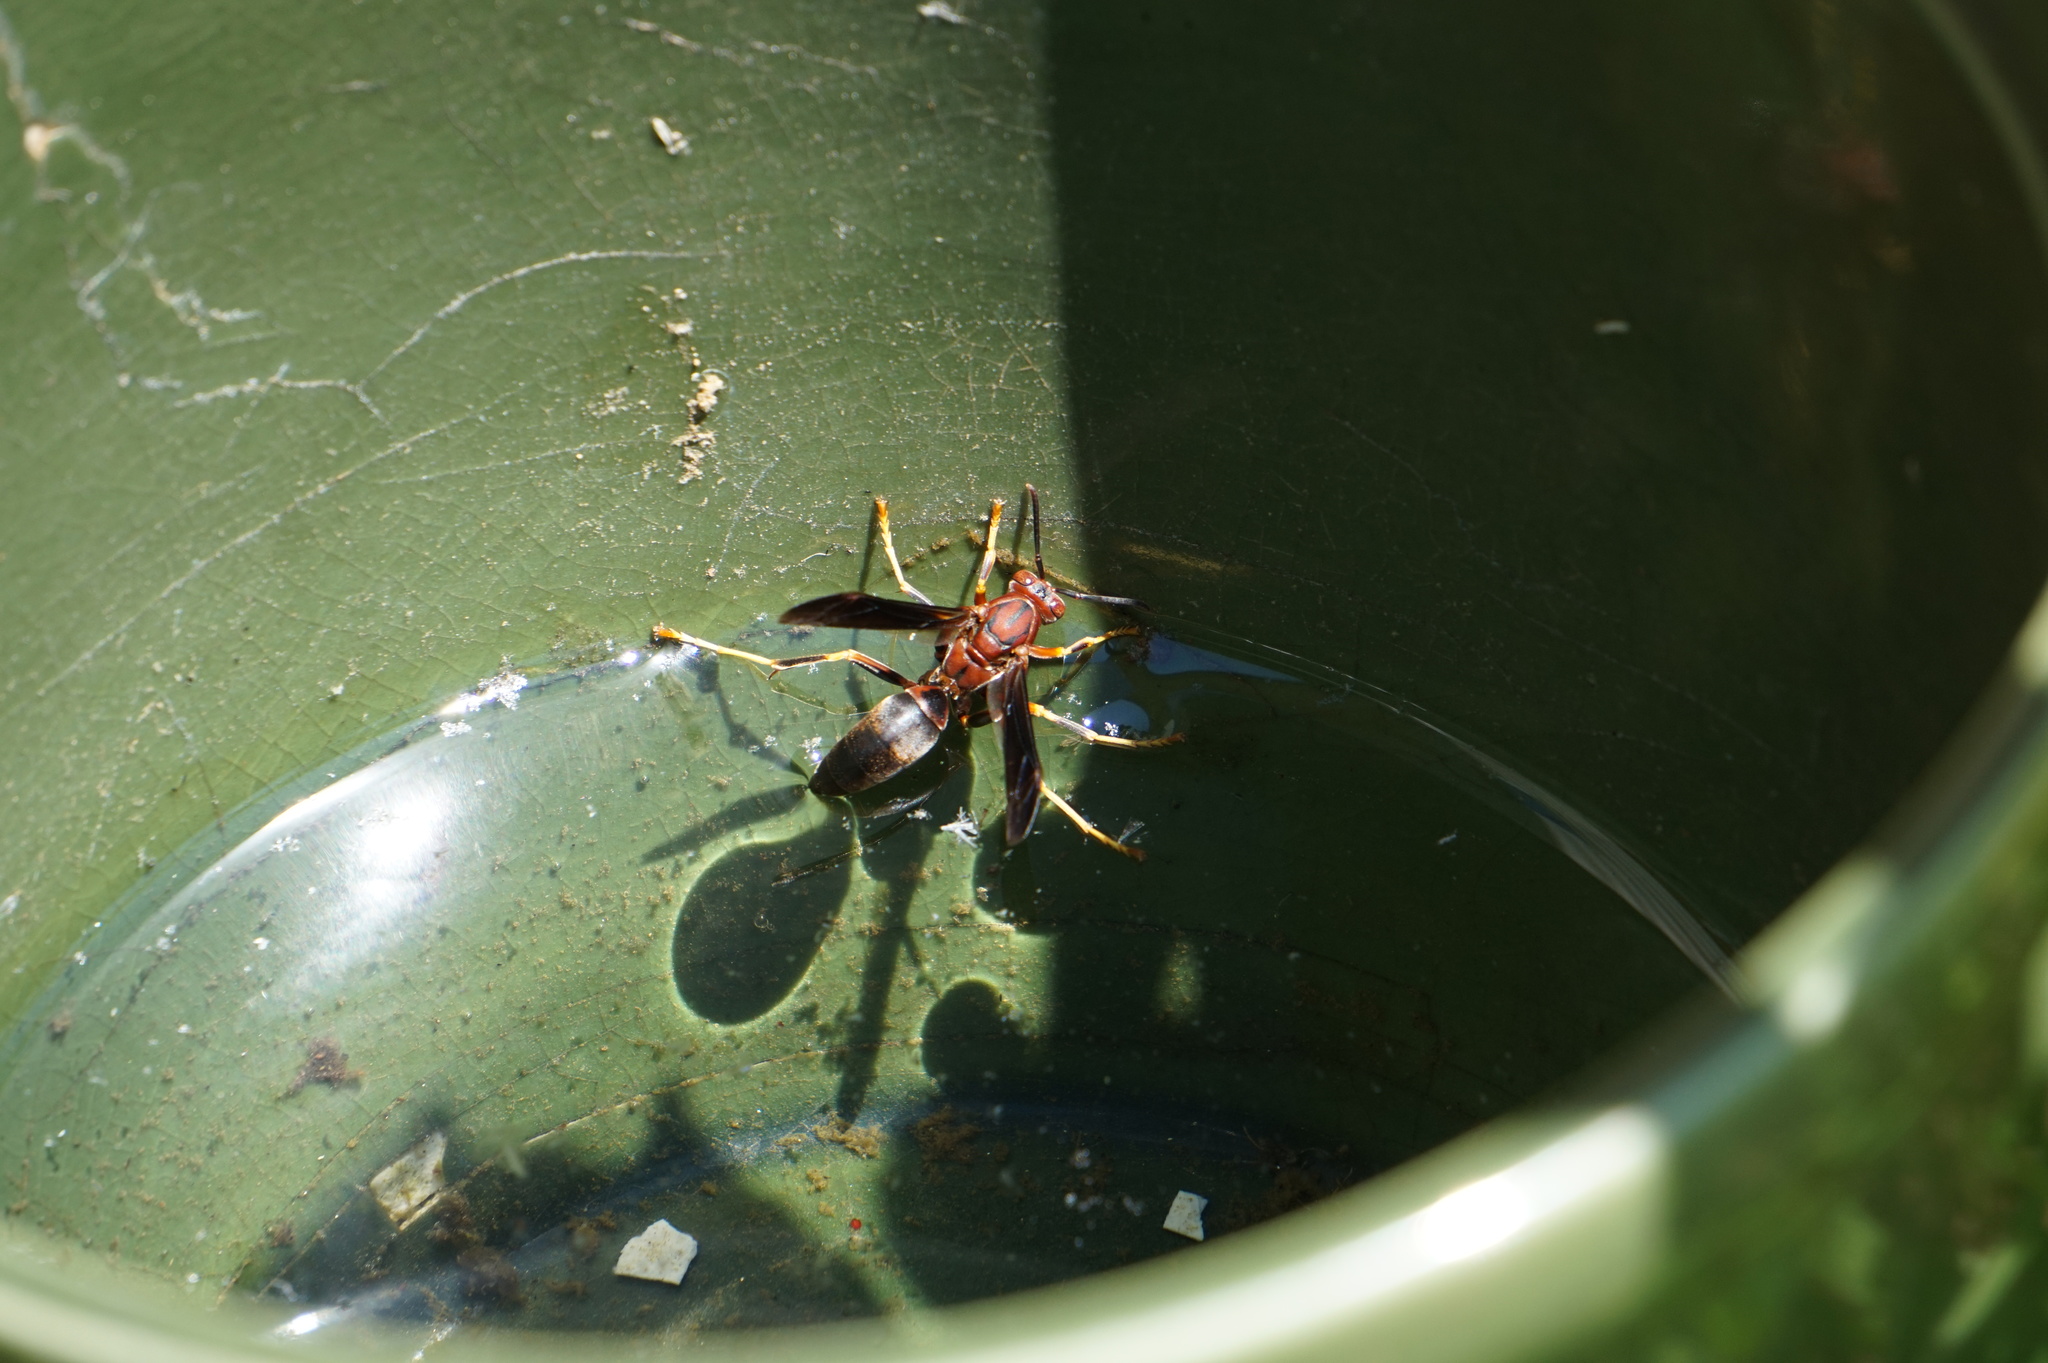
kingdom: Animalia
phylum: Arthropoda
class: Insecta
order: Hymenoptera
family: Eumenidae
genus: Polistes
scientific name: Polistes metricus
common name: Metric paper wasp
